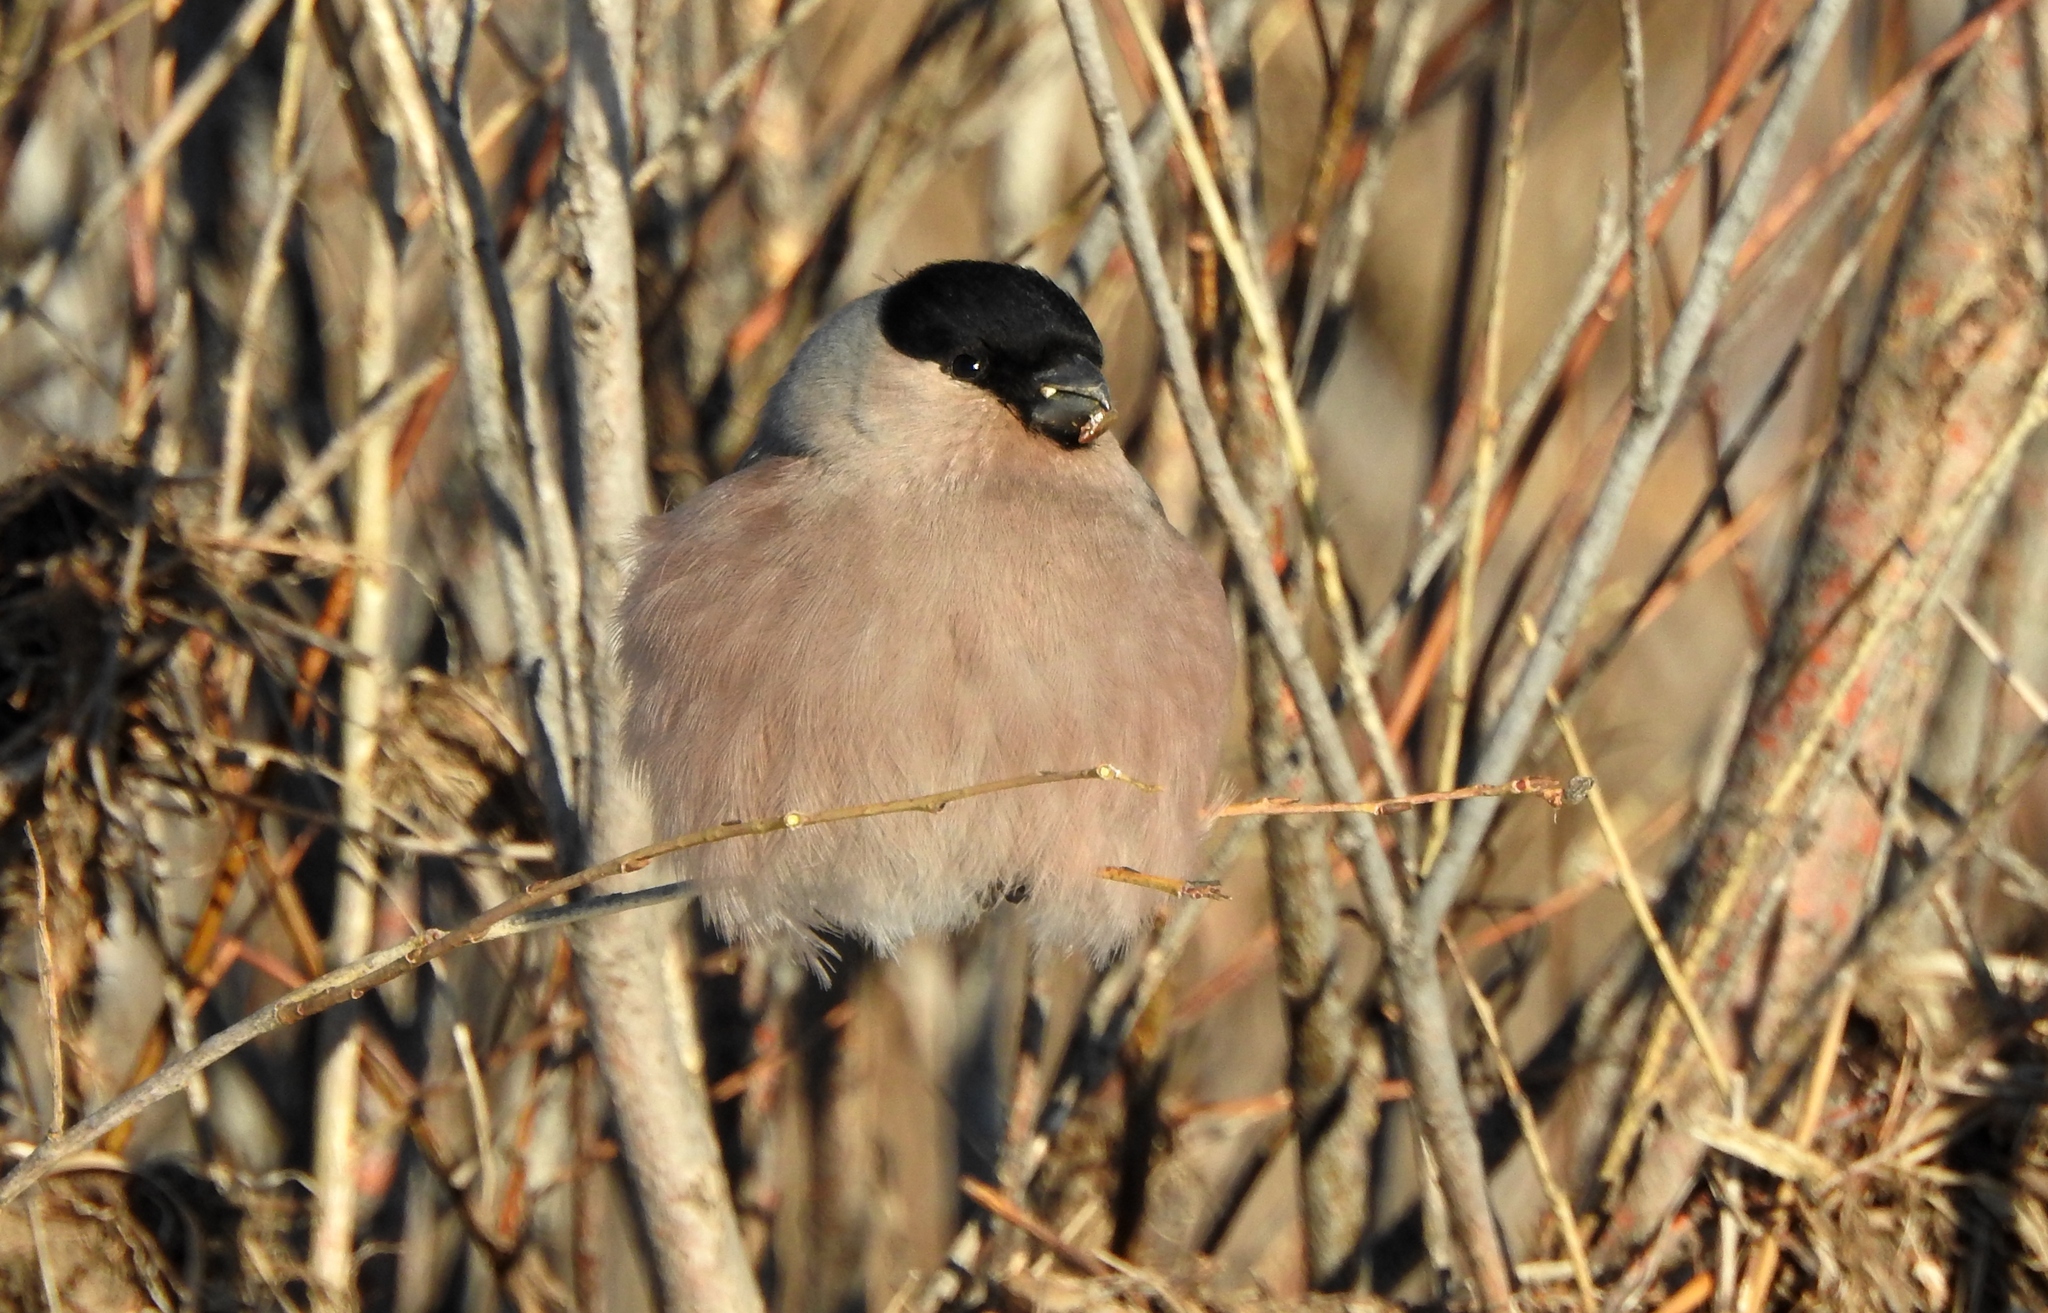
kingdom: Animalia
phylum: Chordata
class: Aves
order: Passeriformes
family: Fringillidae
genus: Pyrrhula
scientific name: Pyrrhula pyrrhula
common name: Eurasian bullfinch
